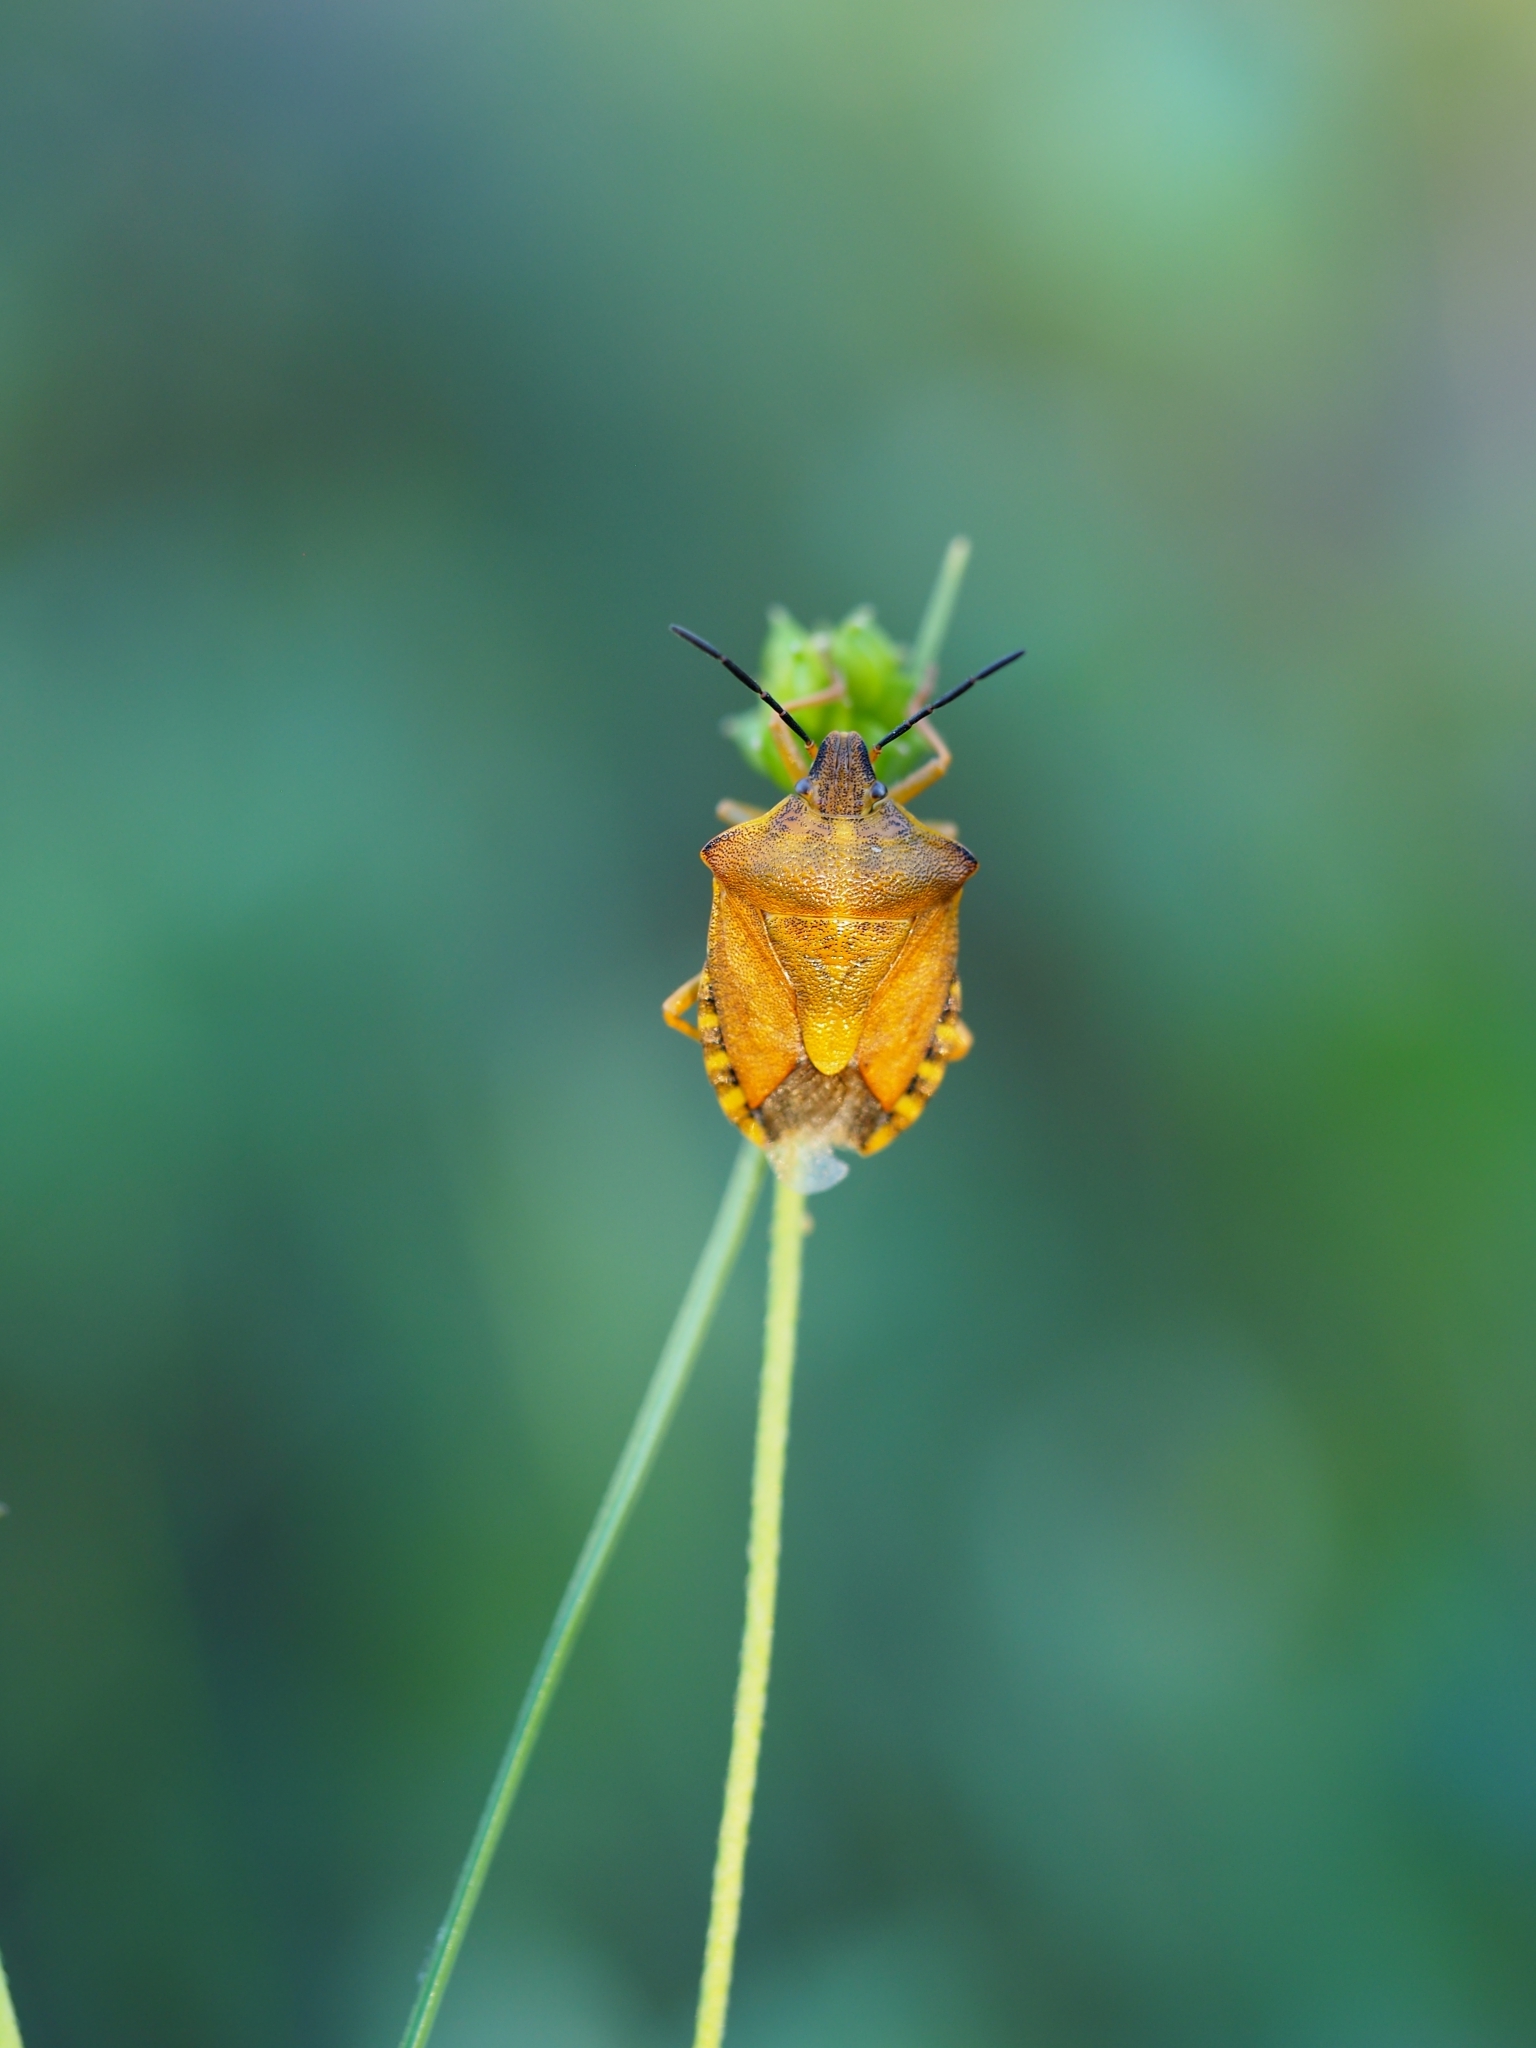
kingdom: Animalia
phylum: Arthropoda
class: Insecta
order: Hemiptera
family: Pentatomidae
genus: Carpocoris
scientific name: Carpocoris purpureipennis
